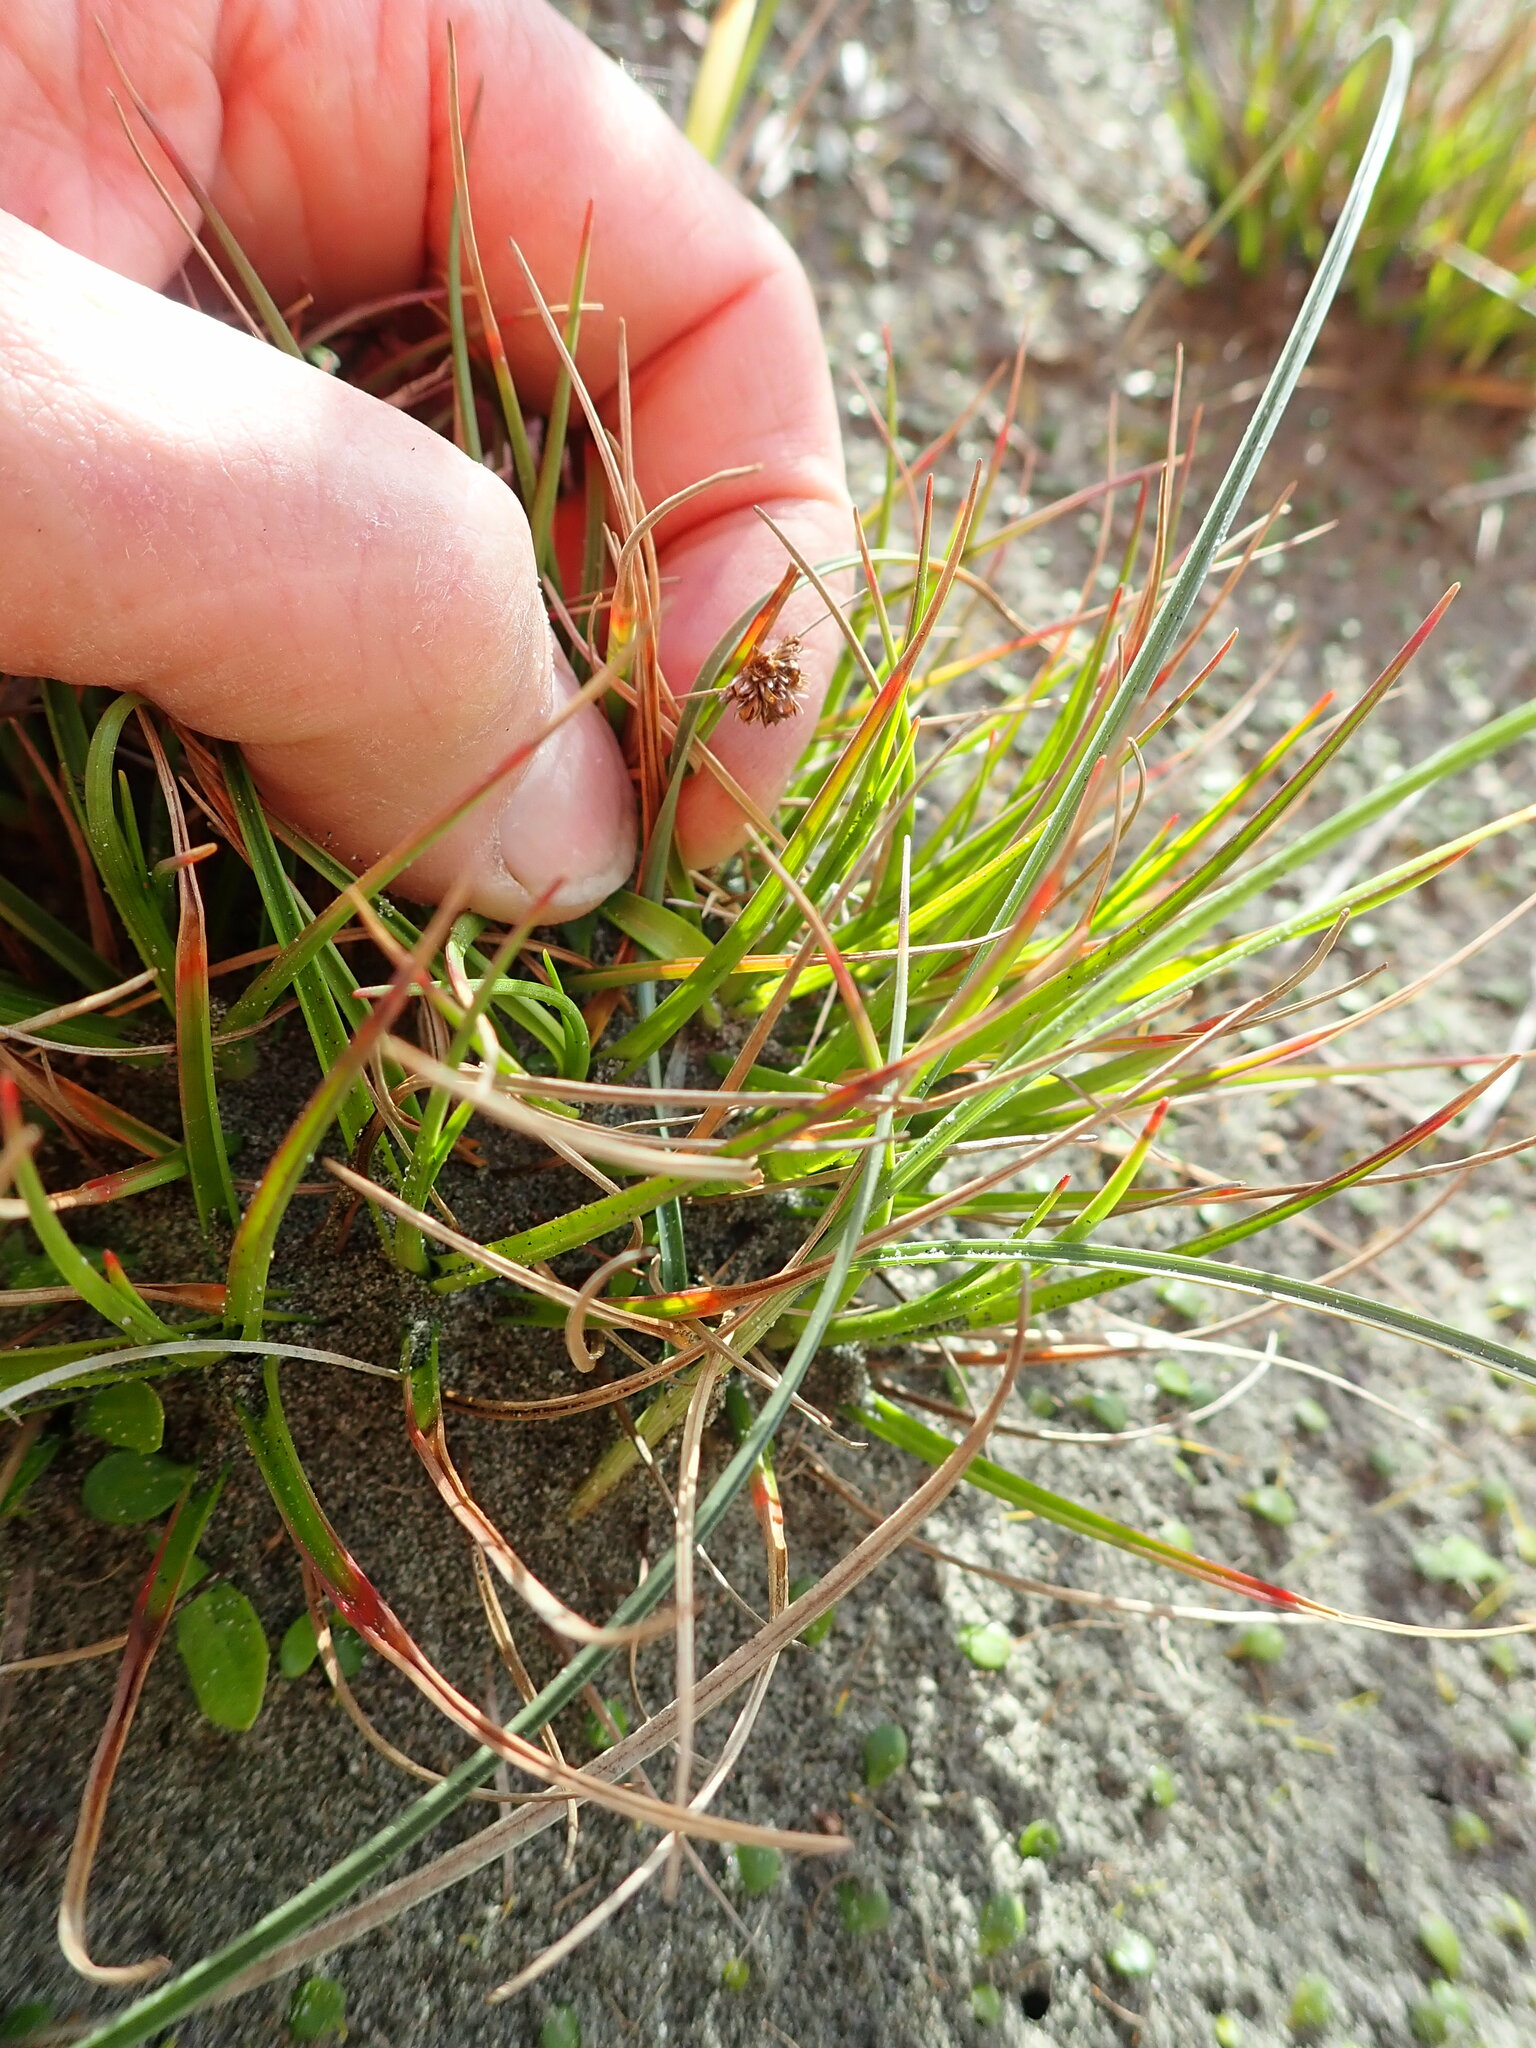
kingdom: Plantae
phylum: Tracheophyta
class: Liliopsida
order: Poales
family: Juncaceae
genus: Juncus
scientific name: Juncus caespiticius
